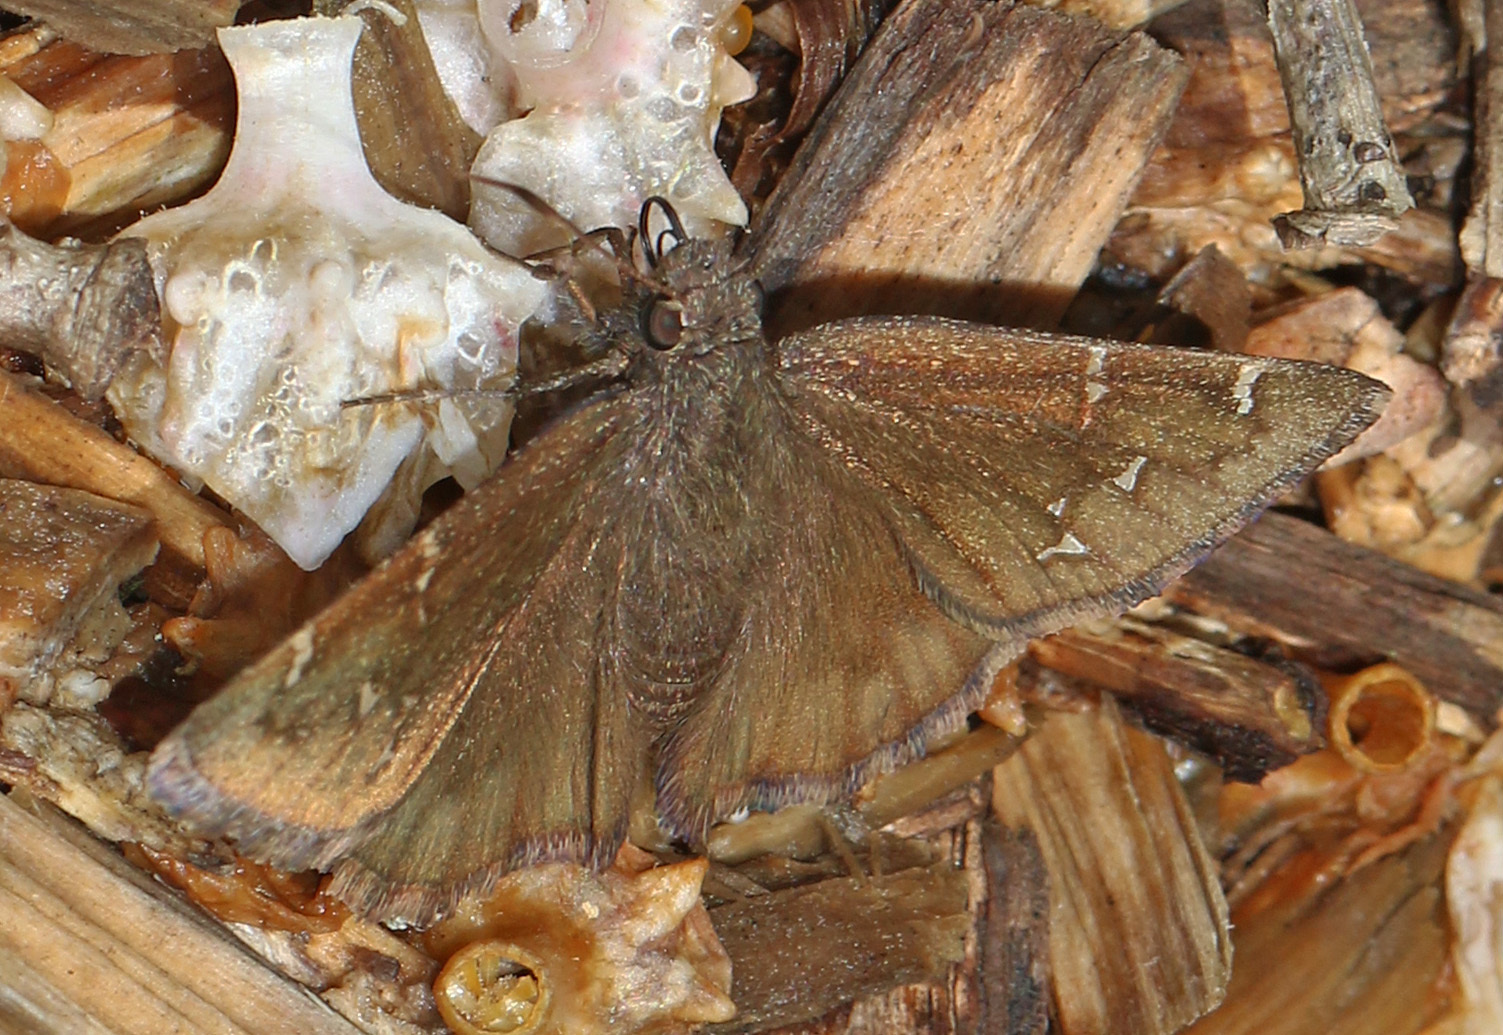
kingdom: Animalia
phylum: Arthropoda
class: Insecta
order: Lepidoptera
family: Hesperiidae
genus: Thorybes
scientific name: Thorybes pylades
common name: Northern cloudywing
